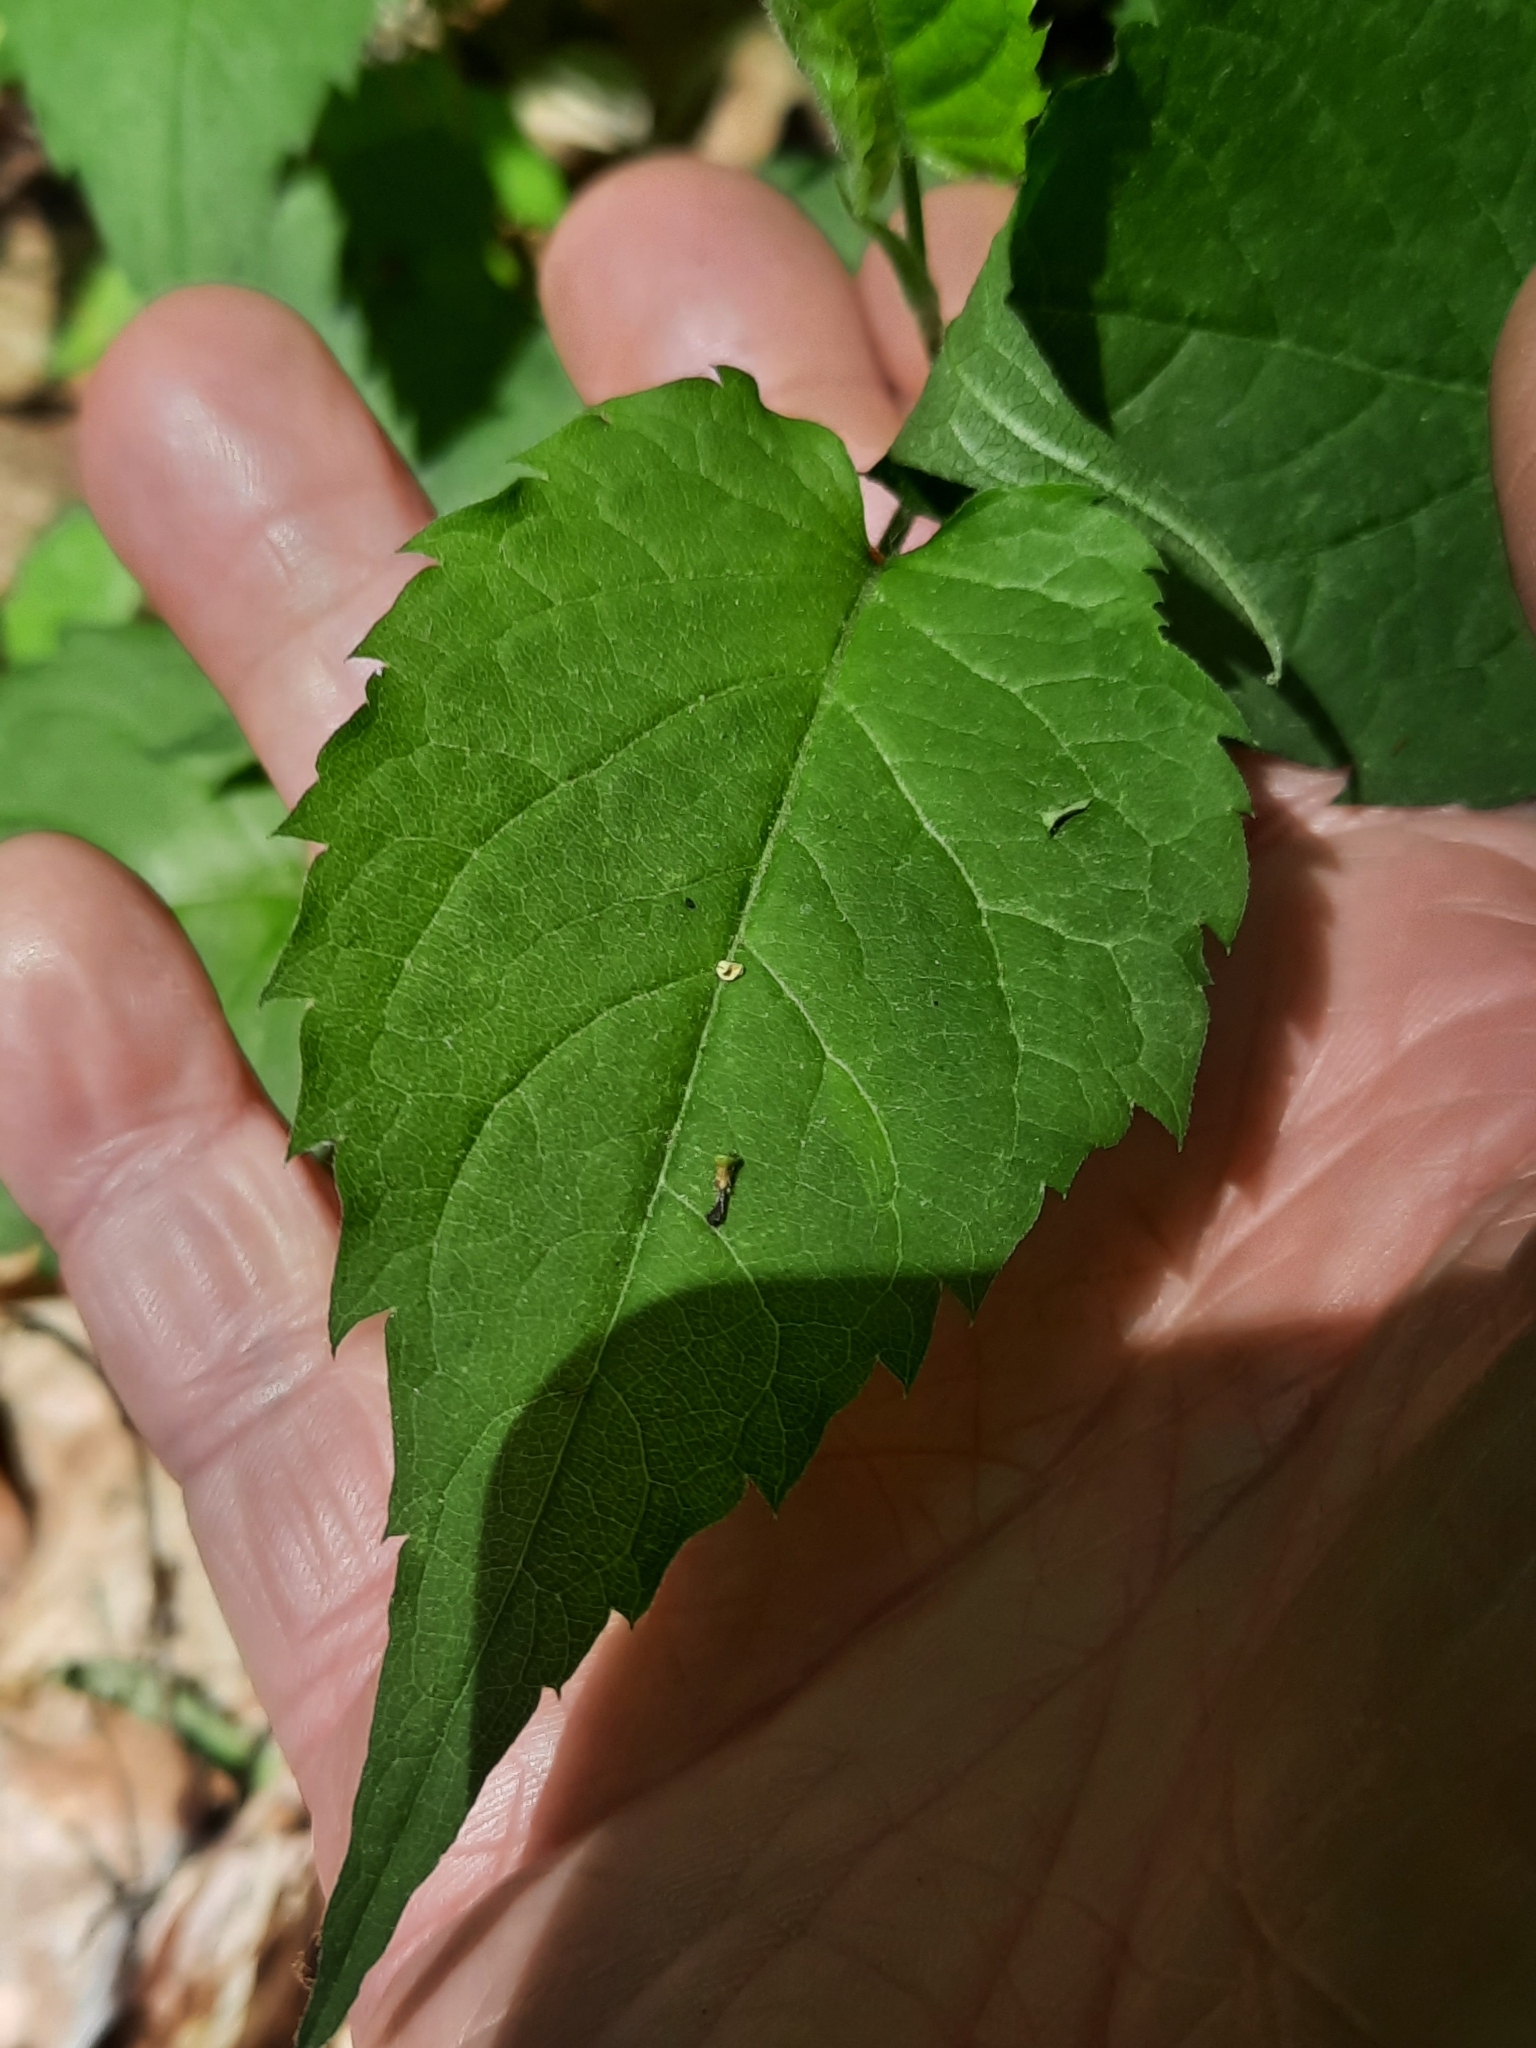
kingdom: Plantae
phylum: Tracheophyta
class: Magnoliopsida
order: Asterales
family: Asteraceae
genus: Eurybia
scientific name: Eurybia divaricata
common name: White wood aster
